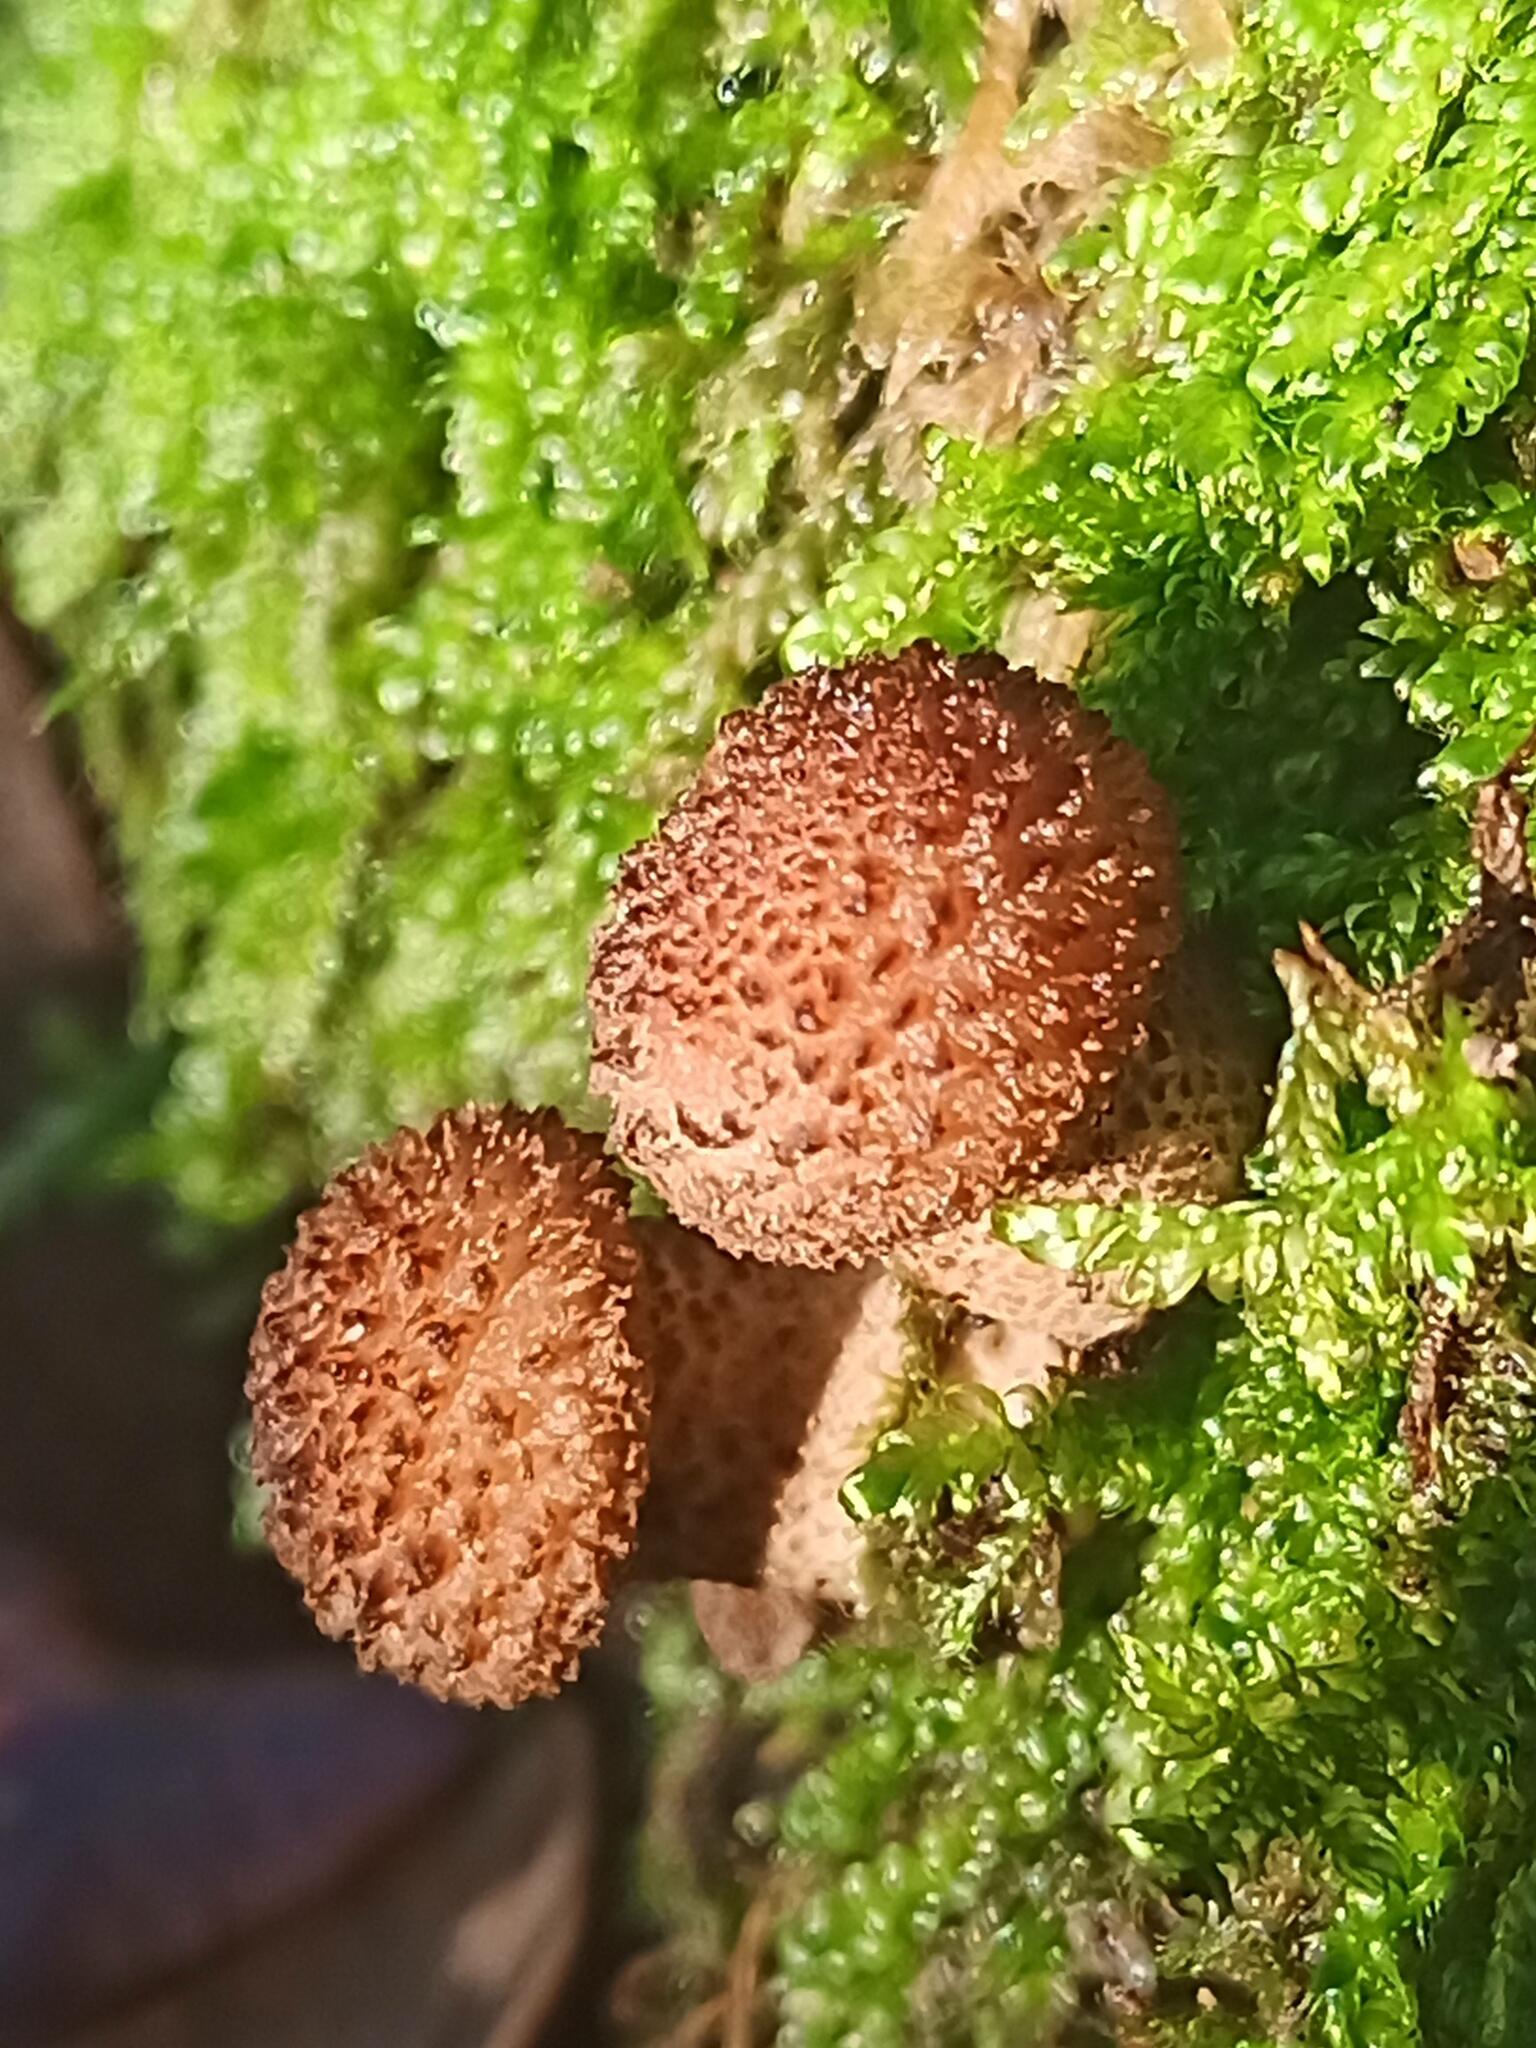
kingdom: Fungi
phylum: Basidiomycota
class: Agaricomycetes
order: Agaricales
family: Physalacriaceae
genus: Armillaria
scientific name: Armillaria ostoyae
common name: Dark honey fungus
